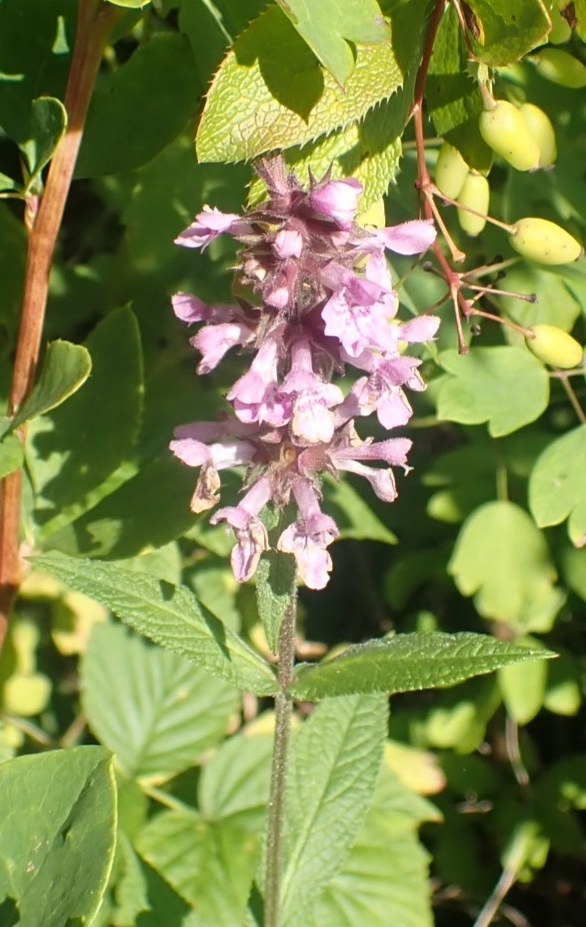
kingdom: Plantae
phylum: Tracheophyta
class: Magnoliopsida
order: Lamiales
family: Lamiaceae
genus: Stachys
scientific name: Stachys palustris
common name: Marsh woundwort
